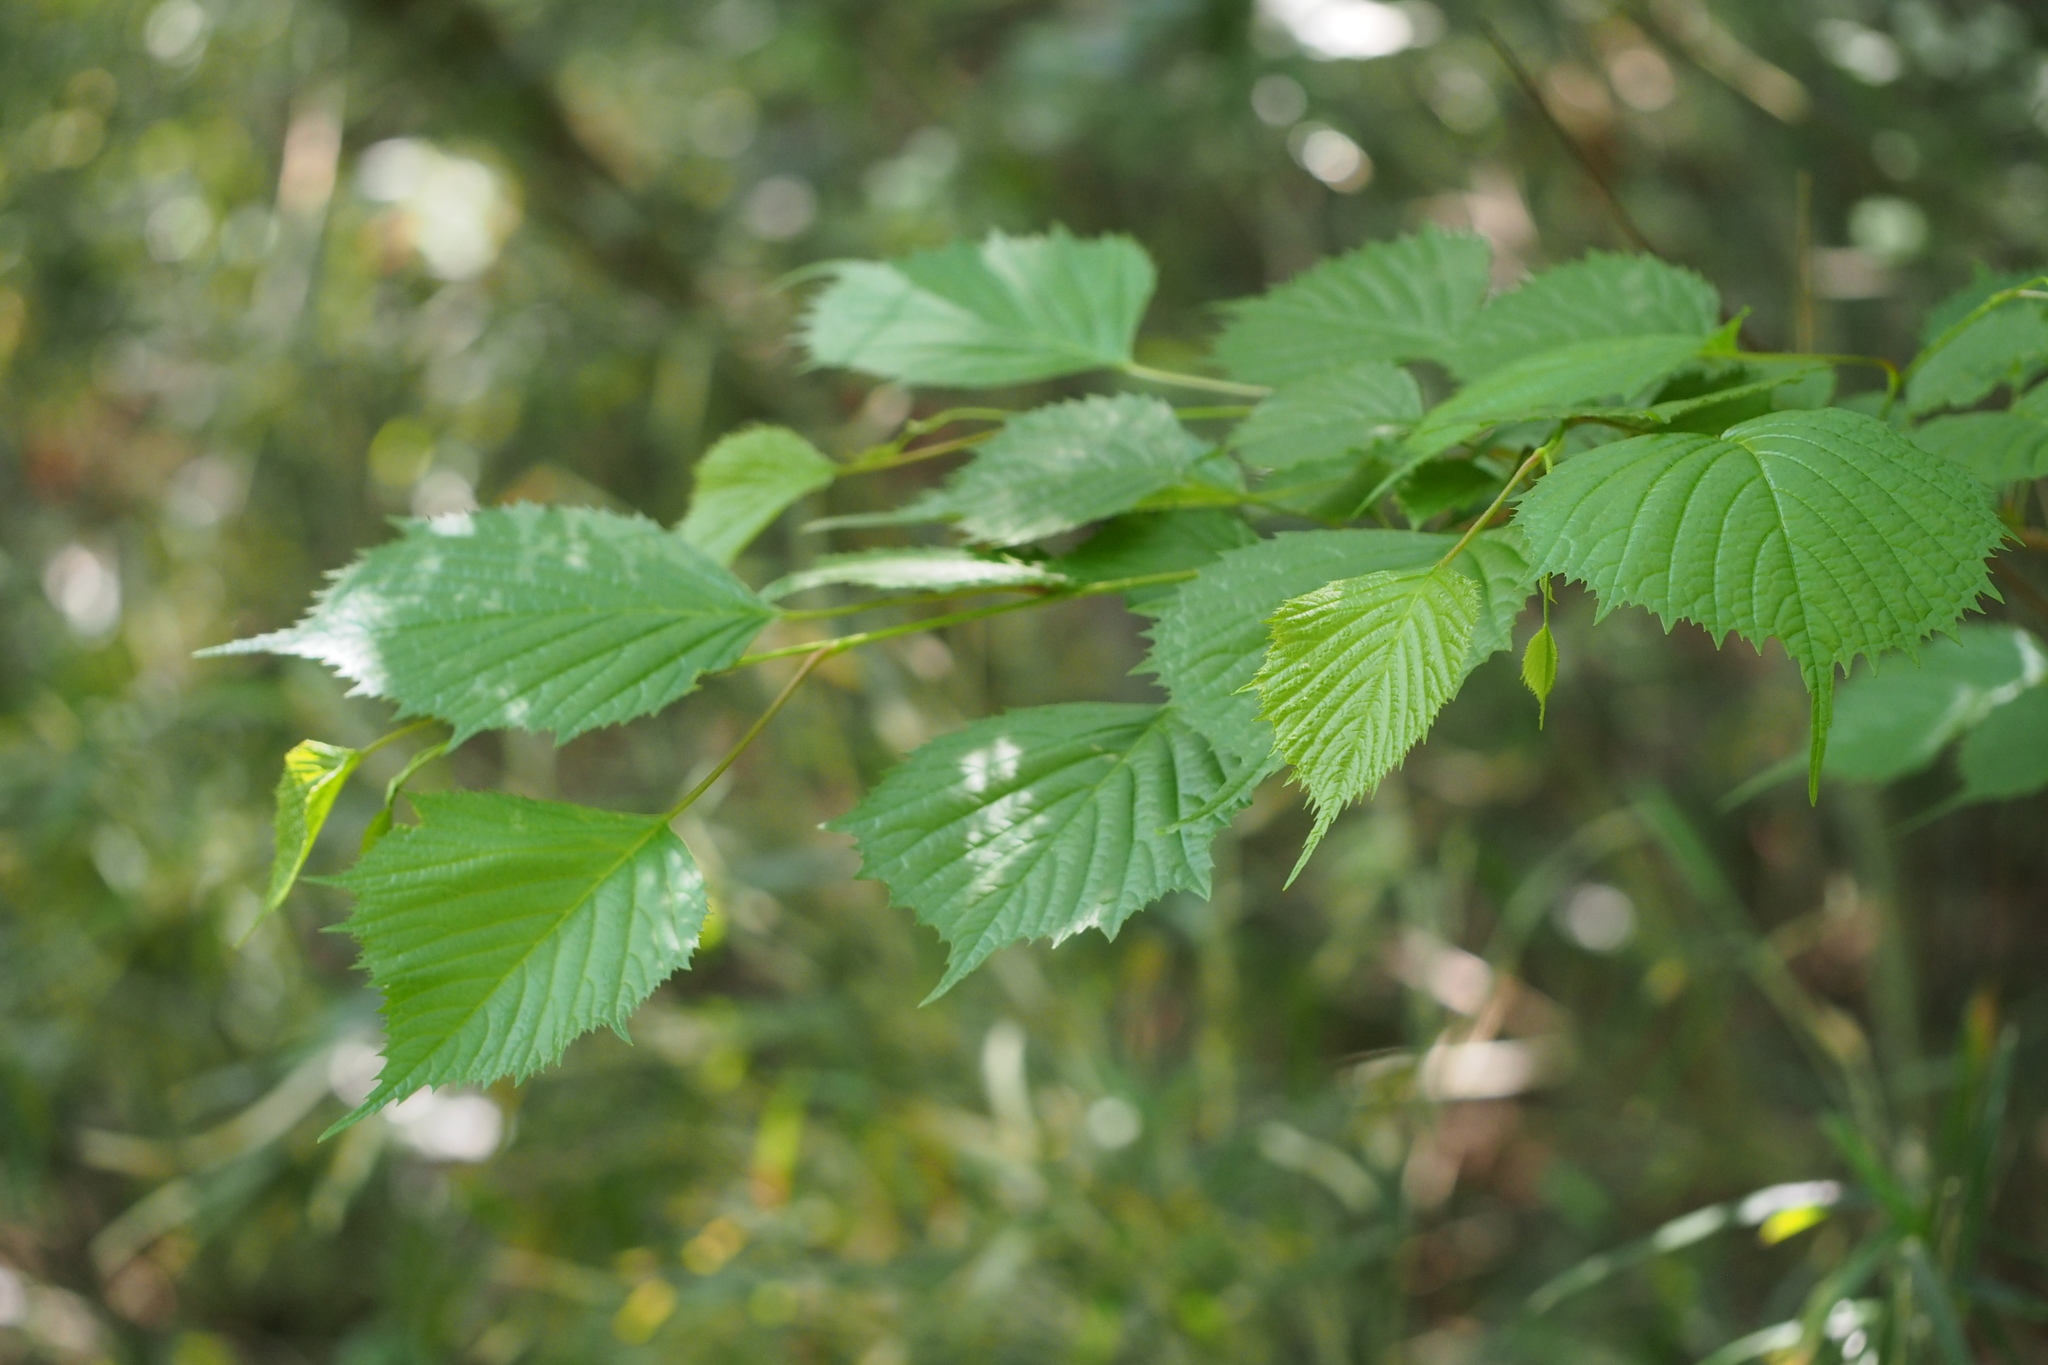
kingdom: Plantae
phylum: Tracheophyta
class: Magnoliopsida
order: Ranunculales
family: Eupteleaceae
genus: Euptelea
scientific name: Euptelea polyandra
